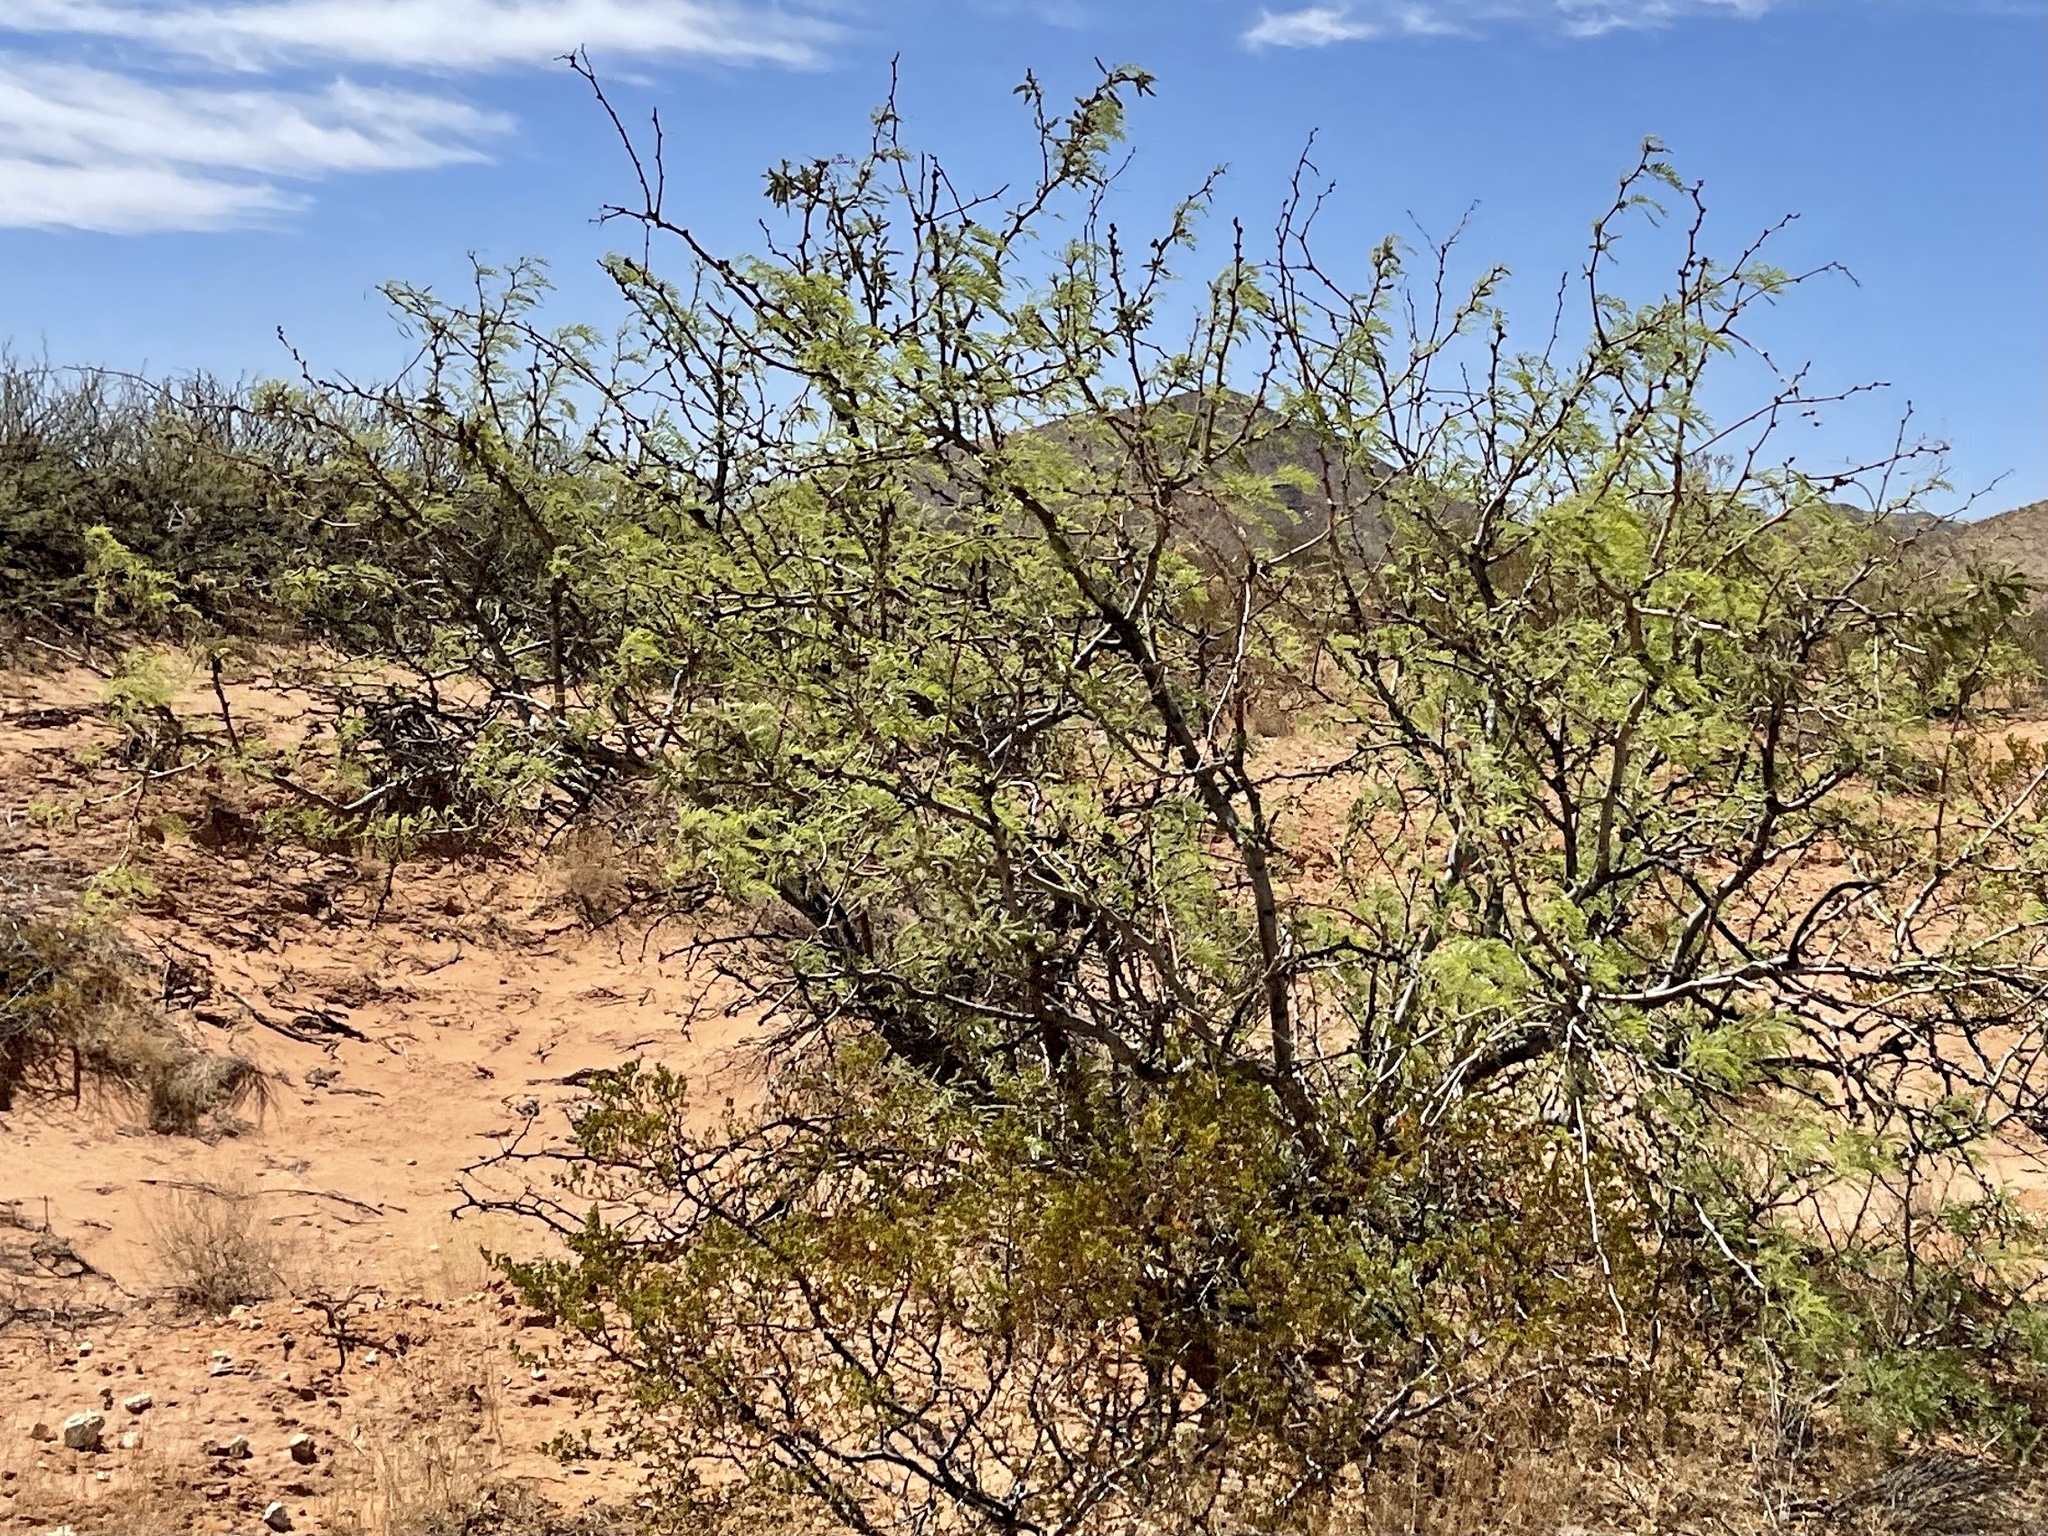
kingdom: Plantae
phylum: Tracheophyta
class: Magnoliopsida
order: Fabales
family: Fabaceae
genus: Prosopis
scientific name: Prosopis glandulosa
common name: Honey mesquite
